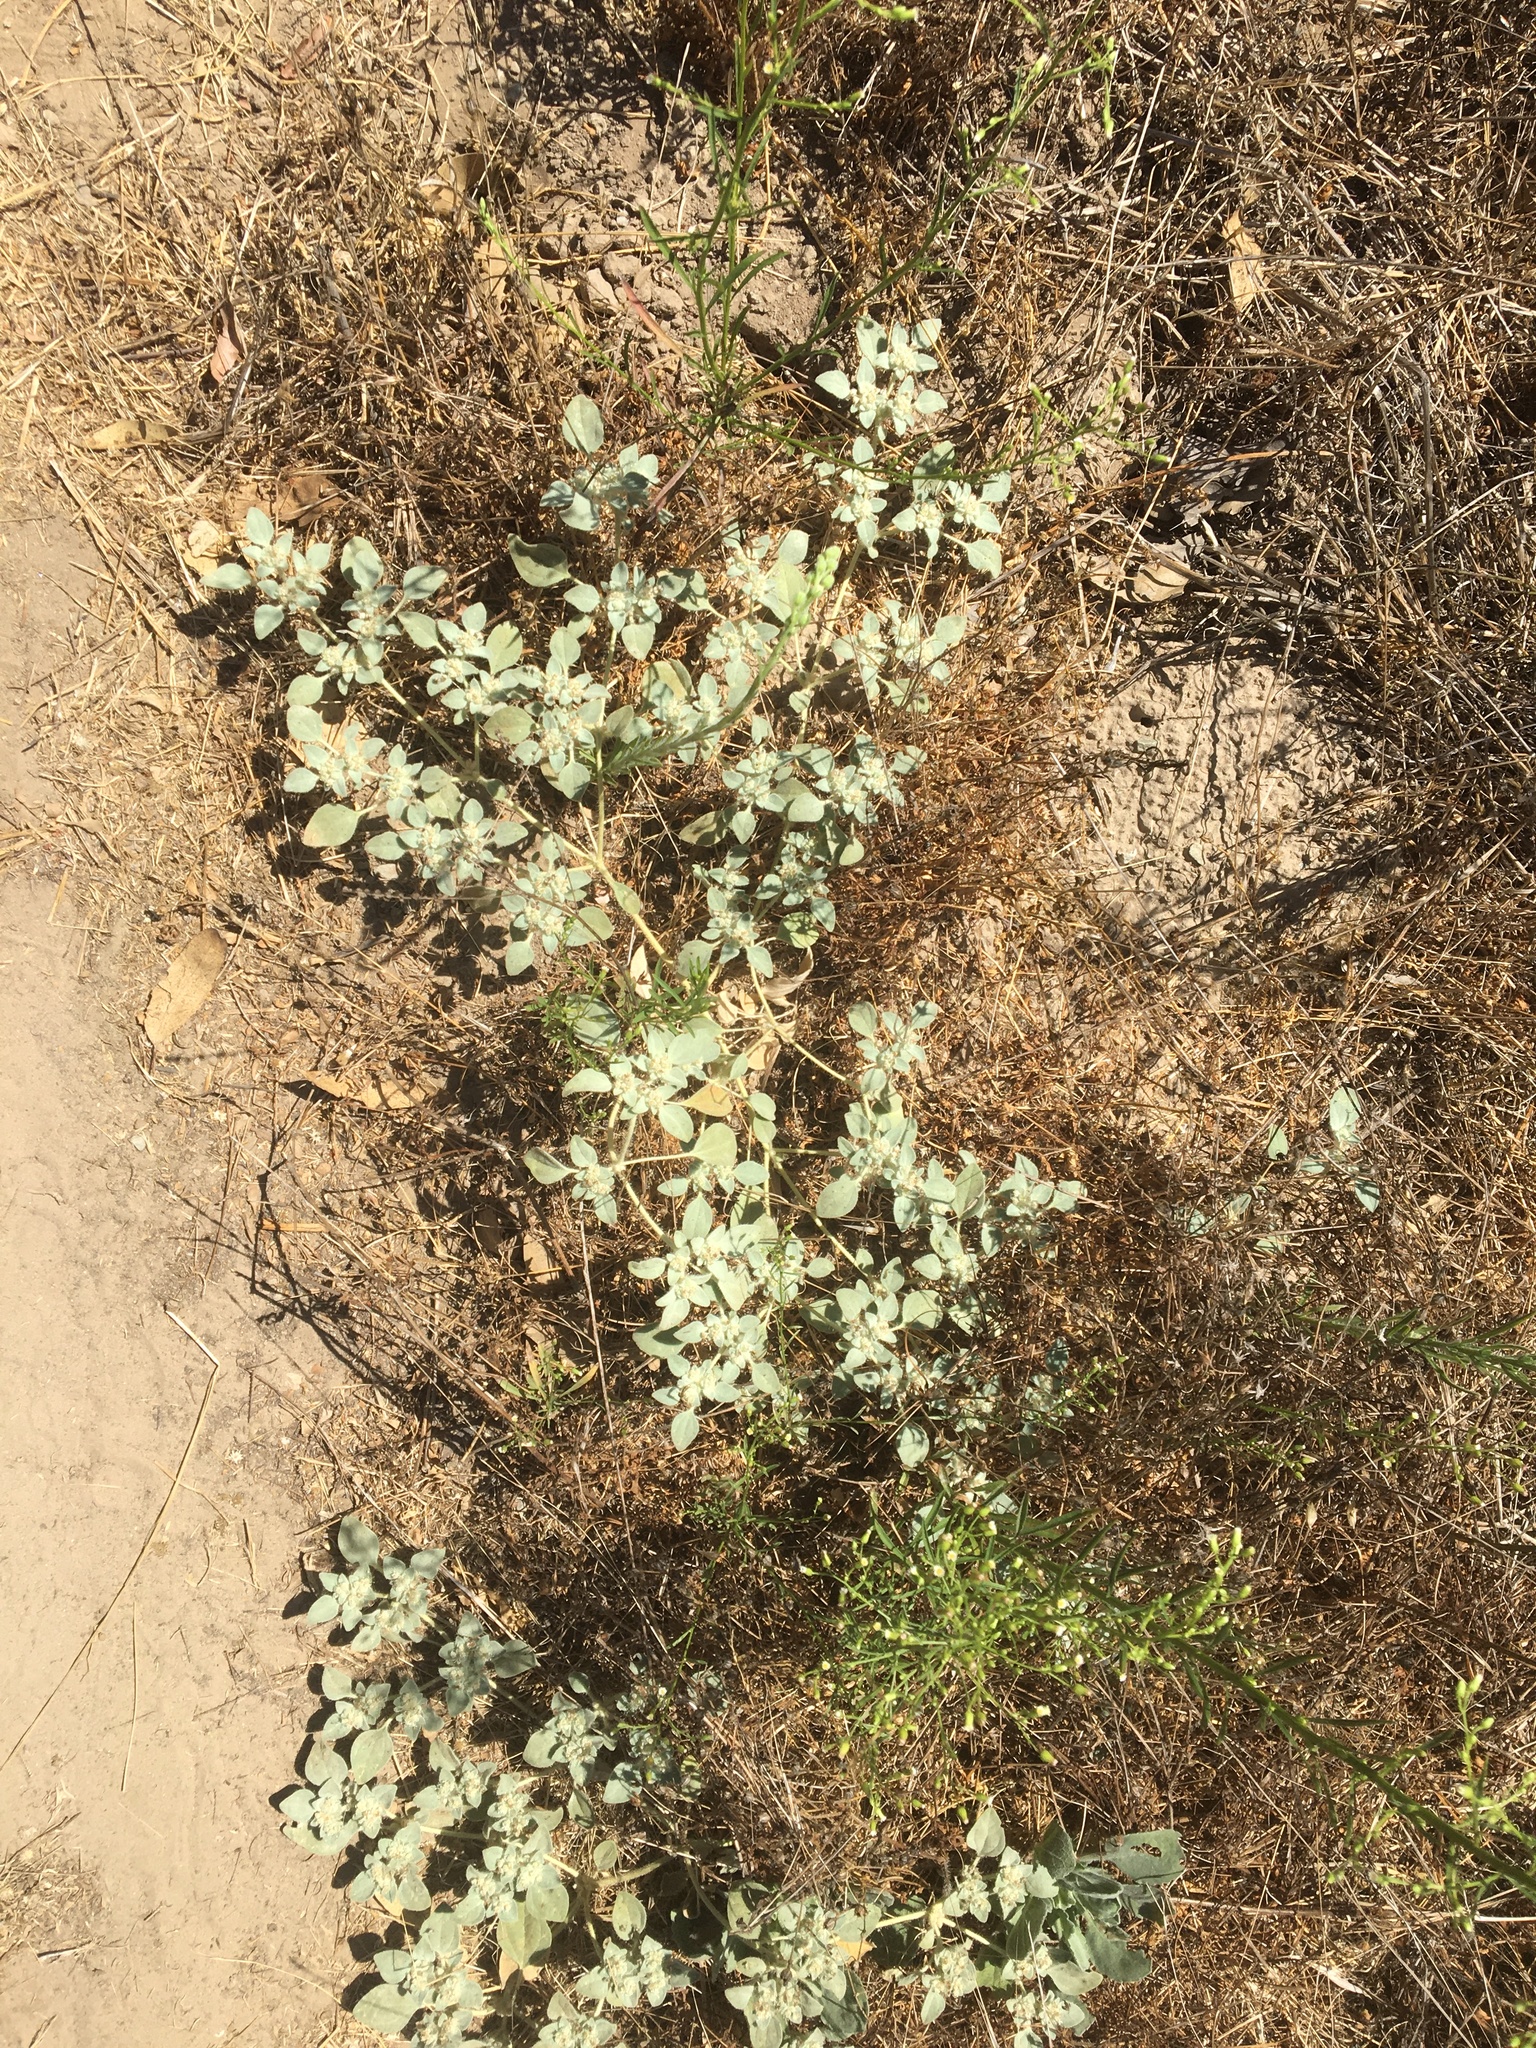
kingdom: Plantae
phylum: Tracheophyta
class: Magnoliopsida
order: Malpighiales
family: Euphorbiaceae
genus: Croton
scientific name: Croton setiger
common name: Dove weed
